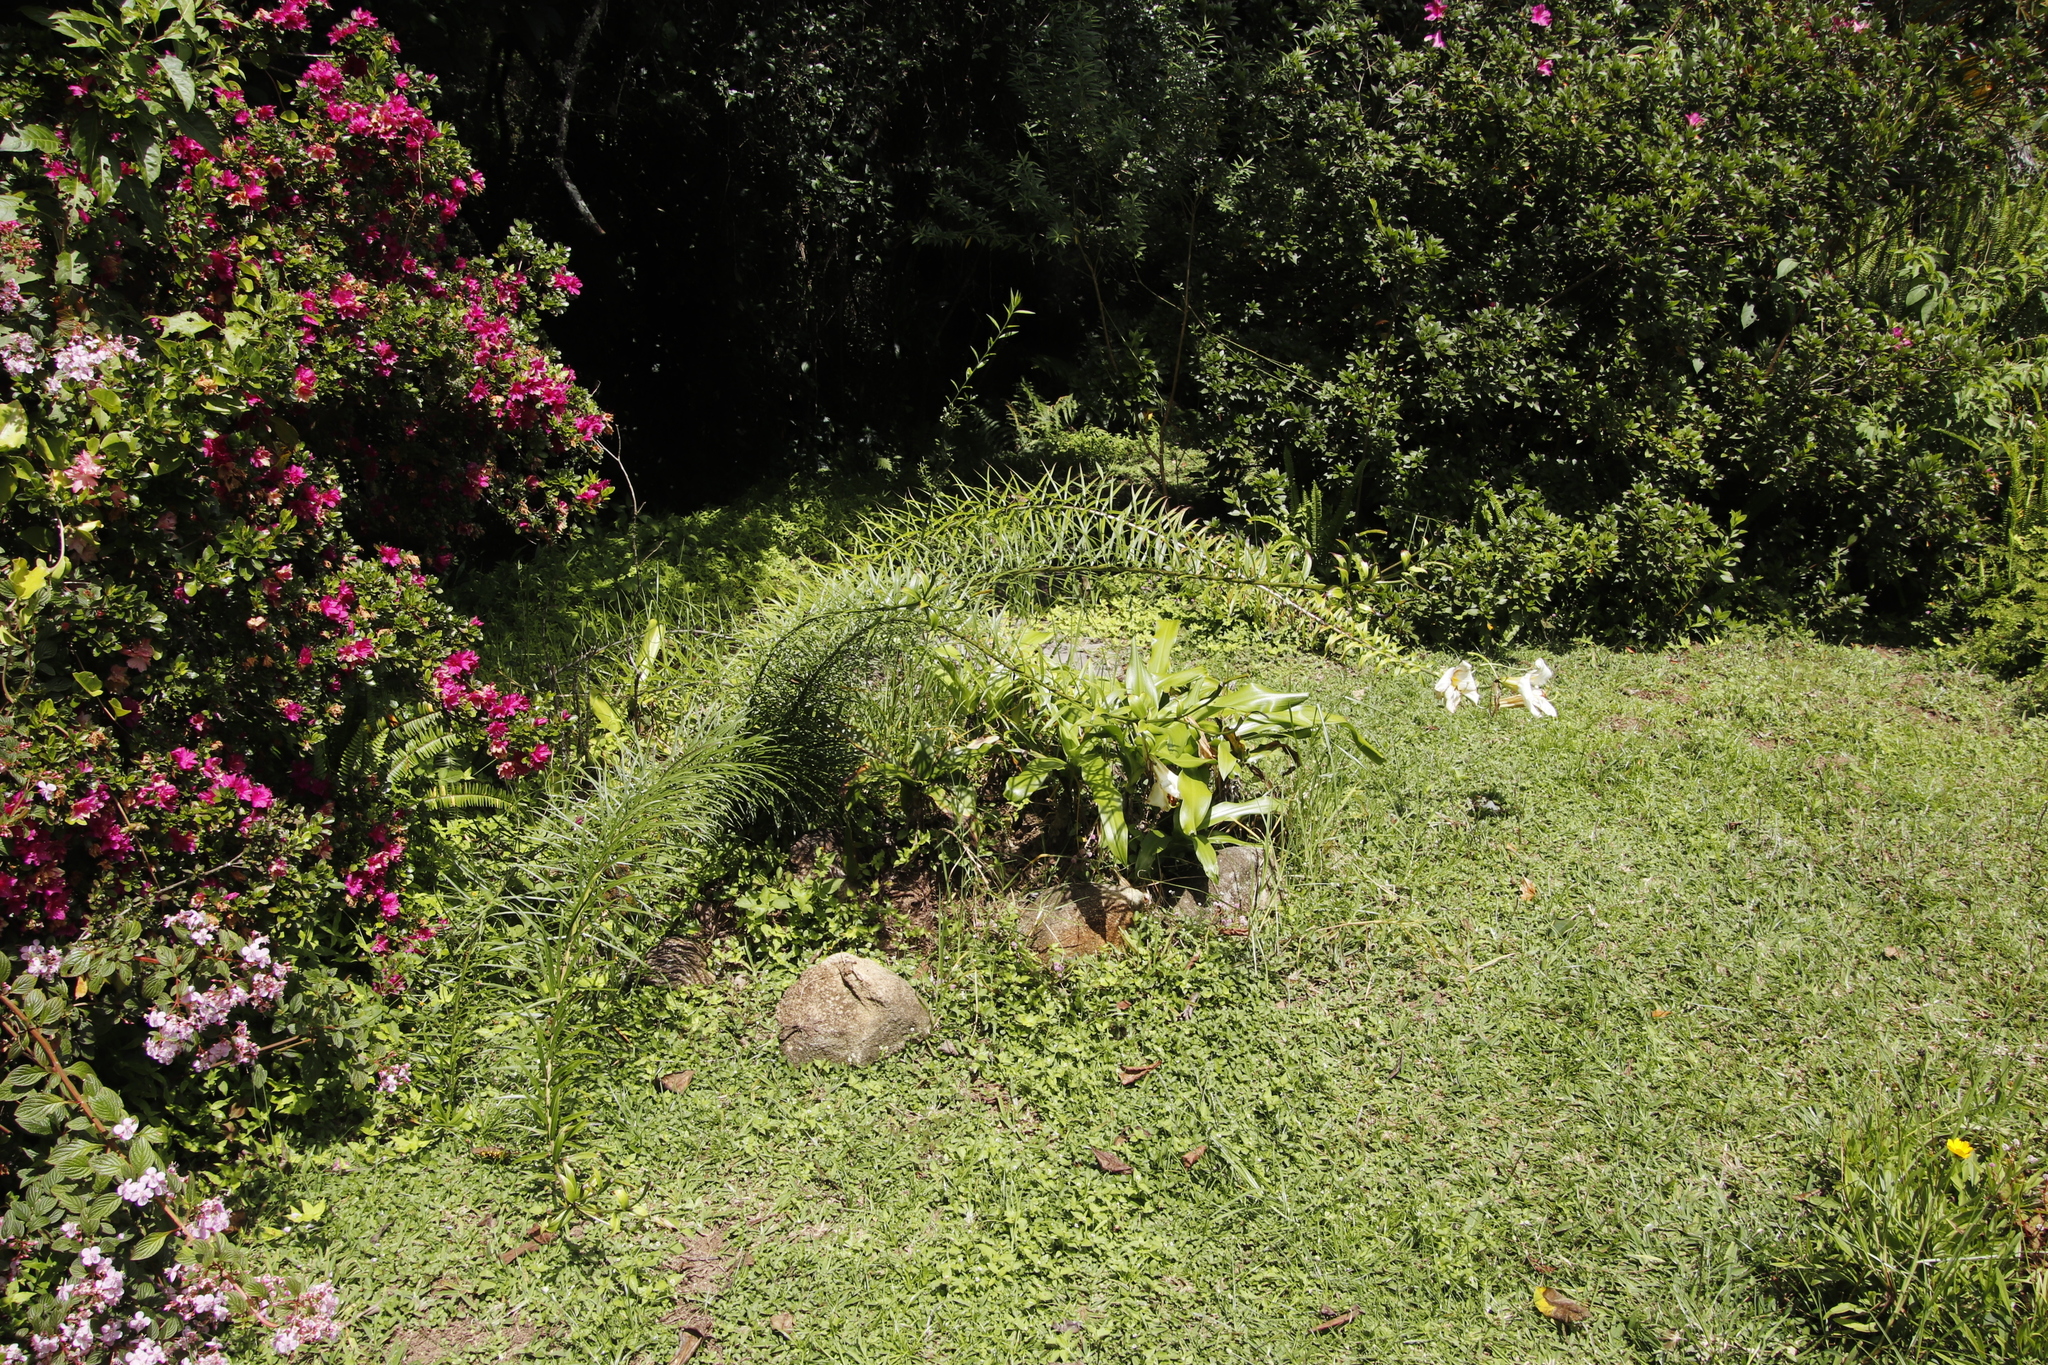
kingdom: Plantae
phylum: Tracheophyta
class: Liliopsida
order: Liliales
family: Liliaceae
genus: Lilium
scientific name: Lilium formosanum
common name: Formosa lily
